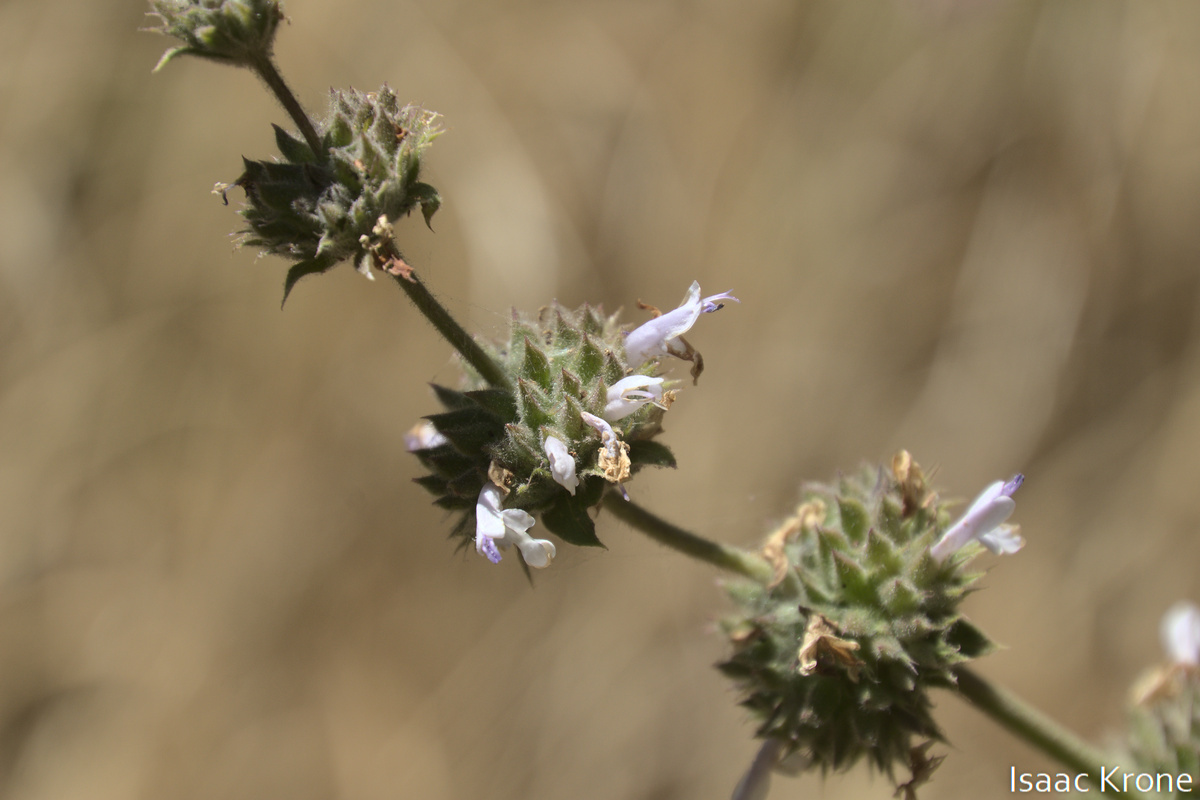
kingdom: Plantae
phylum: Tracheophyta
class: Magnoliopsida
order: Lamiales
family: Lamiaceae
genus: Salvia
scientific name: Salvia mellifera
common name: Black sage
